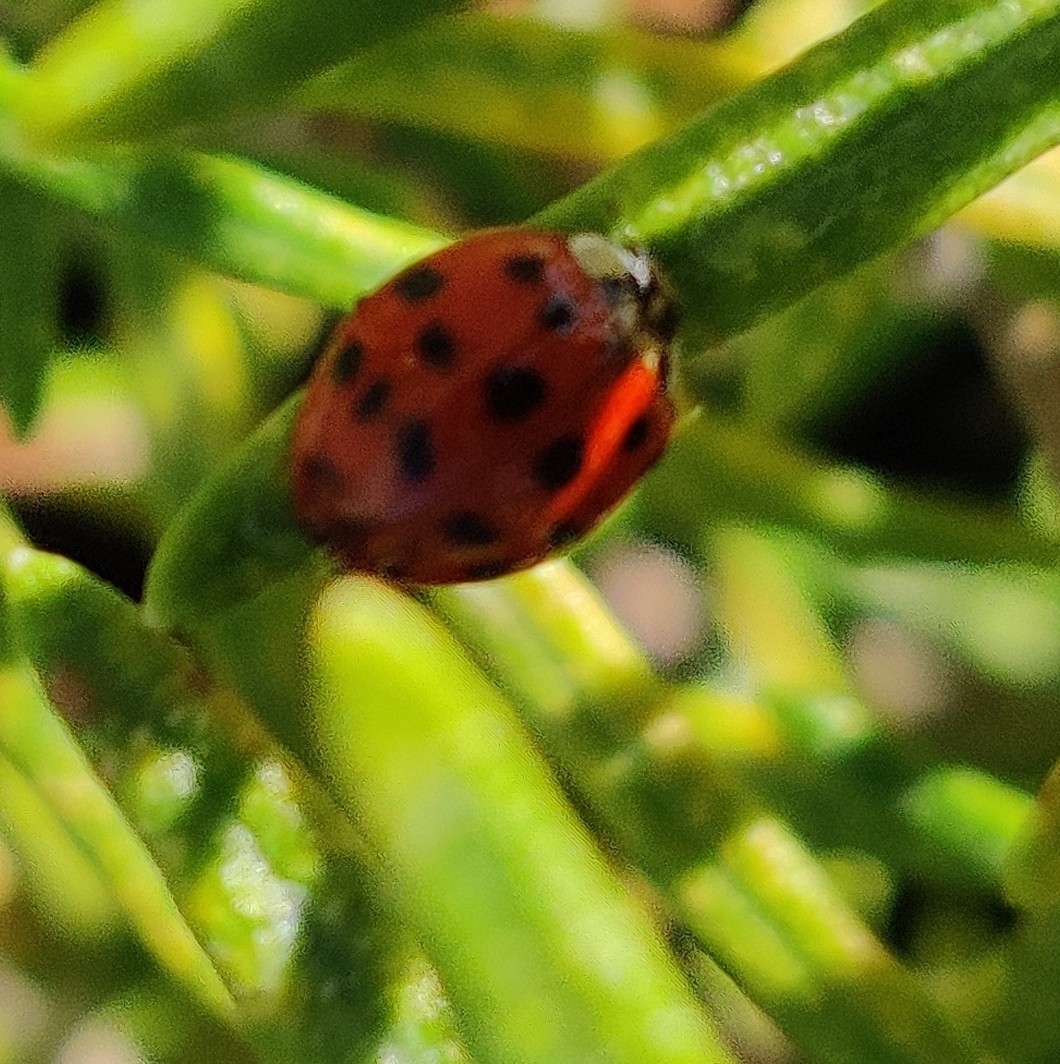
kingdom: Fungi
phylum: Ascomycota
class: Laboulbeniomycetes
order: Laboulbeniales
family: Laboulbeniaceae
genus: Hesperomyces
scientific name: Hesperomyces harmoniae
